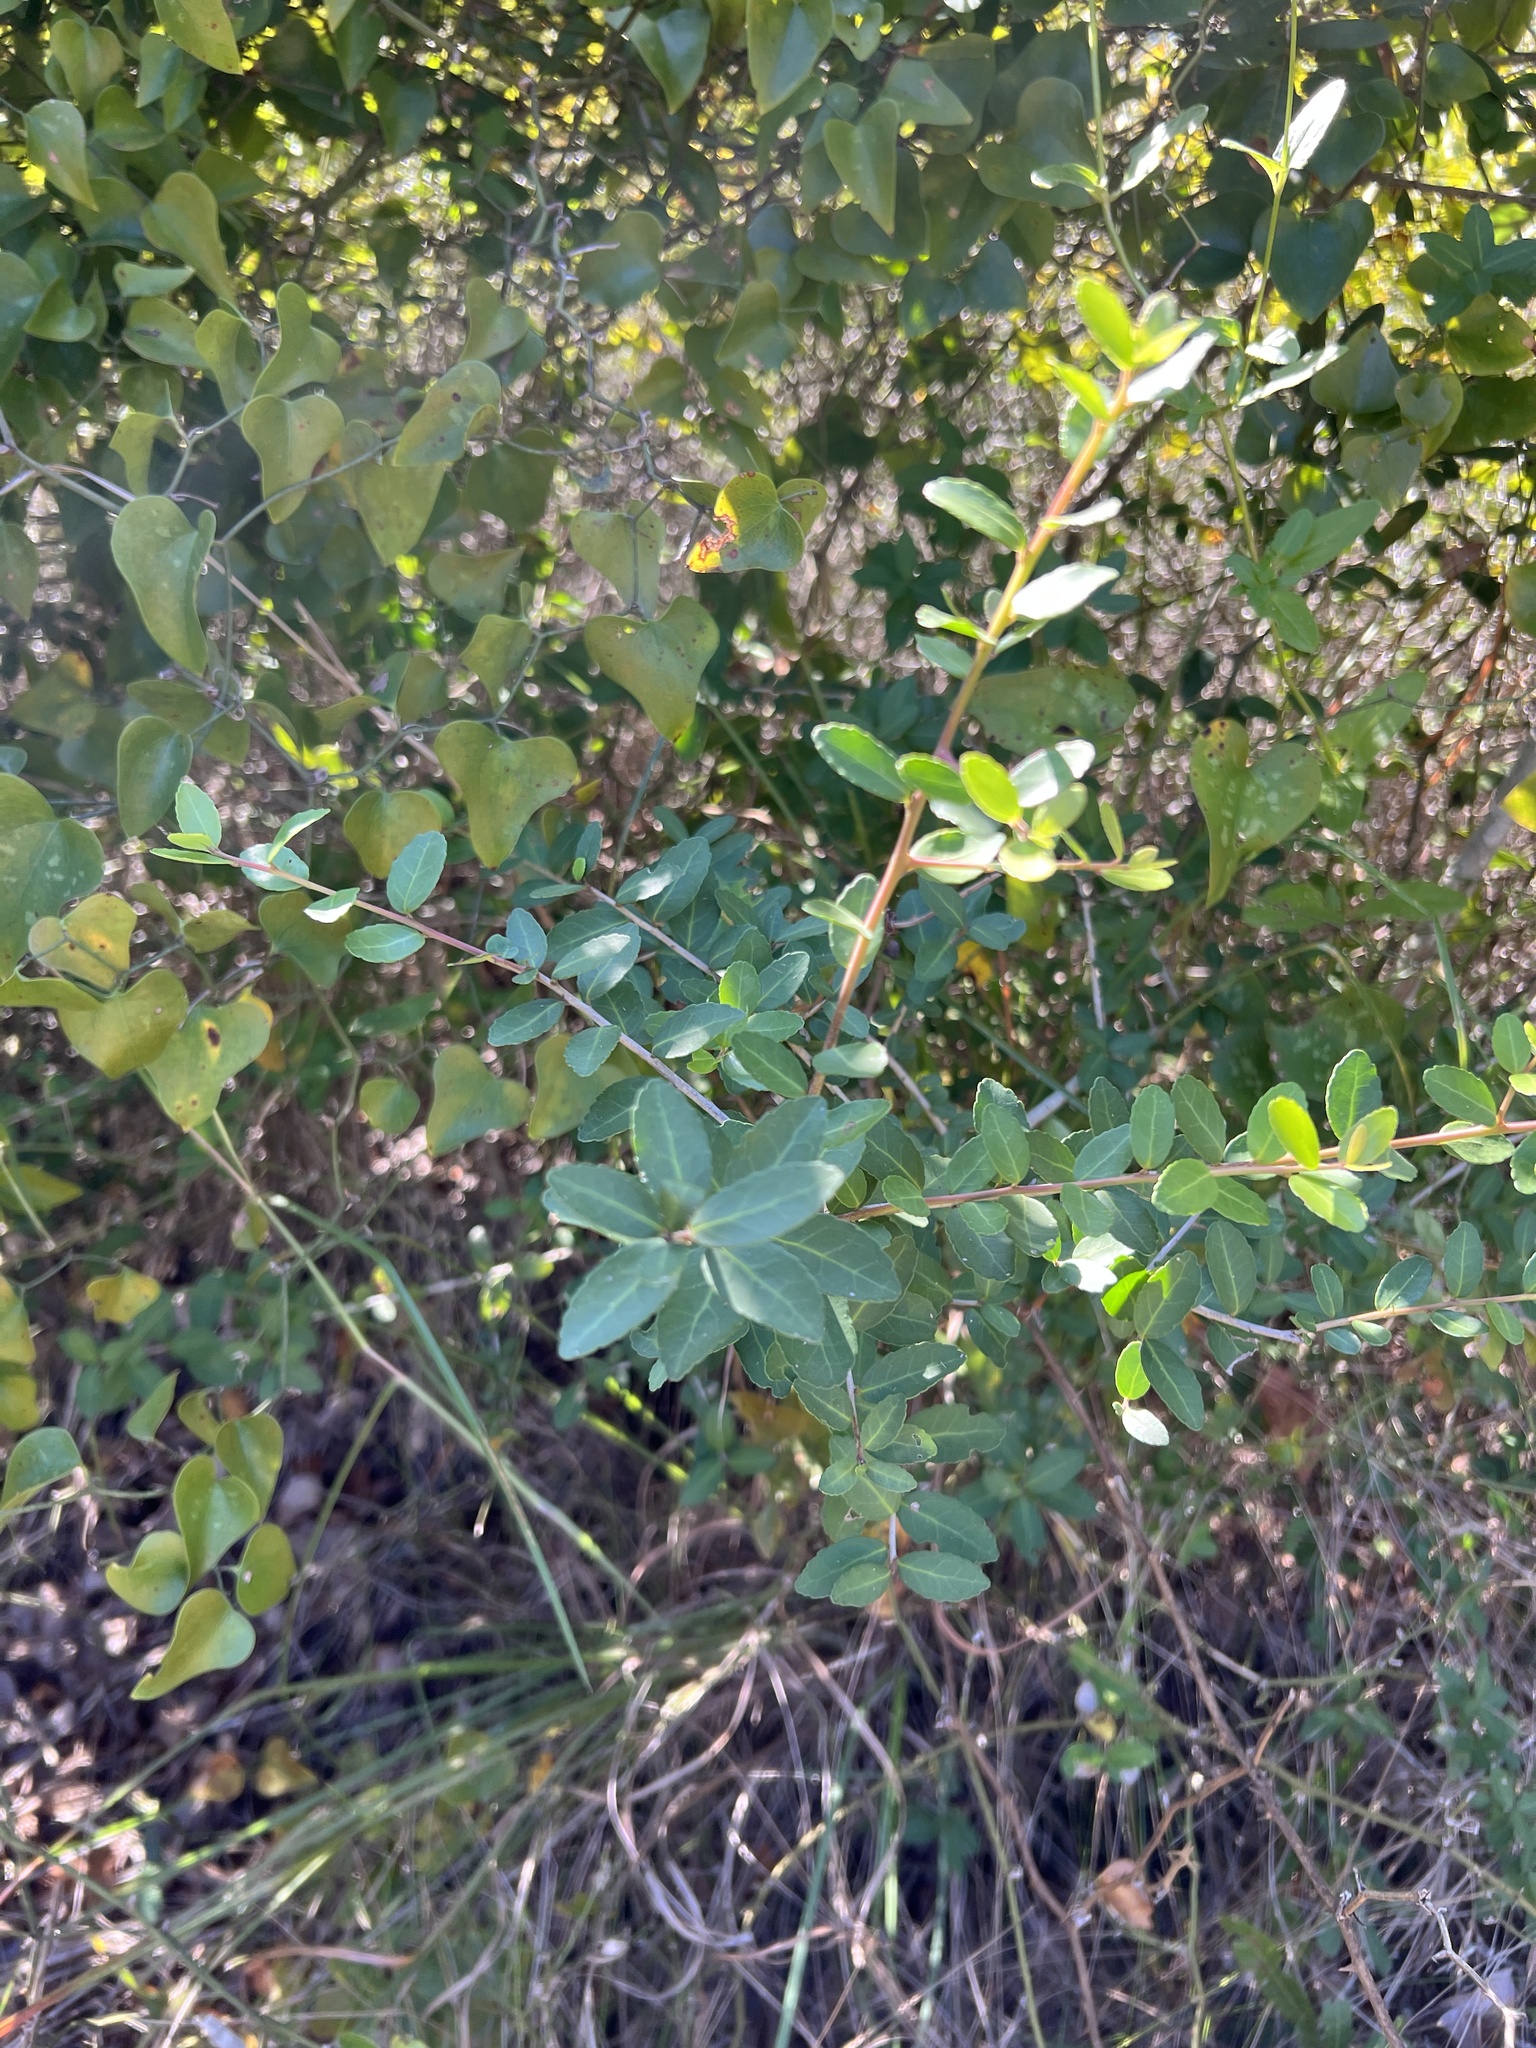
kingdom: Plantae
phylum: Tracheophyta
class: Magnoliopsida
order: Aquifoliales
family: Aquifoliaceae
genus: Ilex
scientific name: Ilex vomitoria
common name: Yaupon holly
